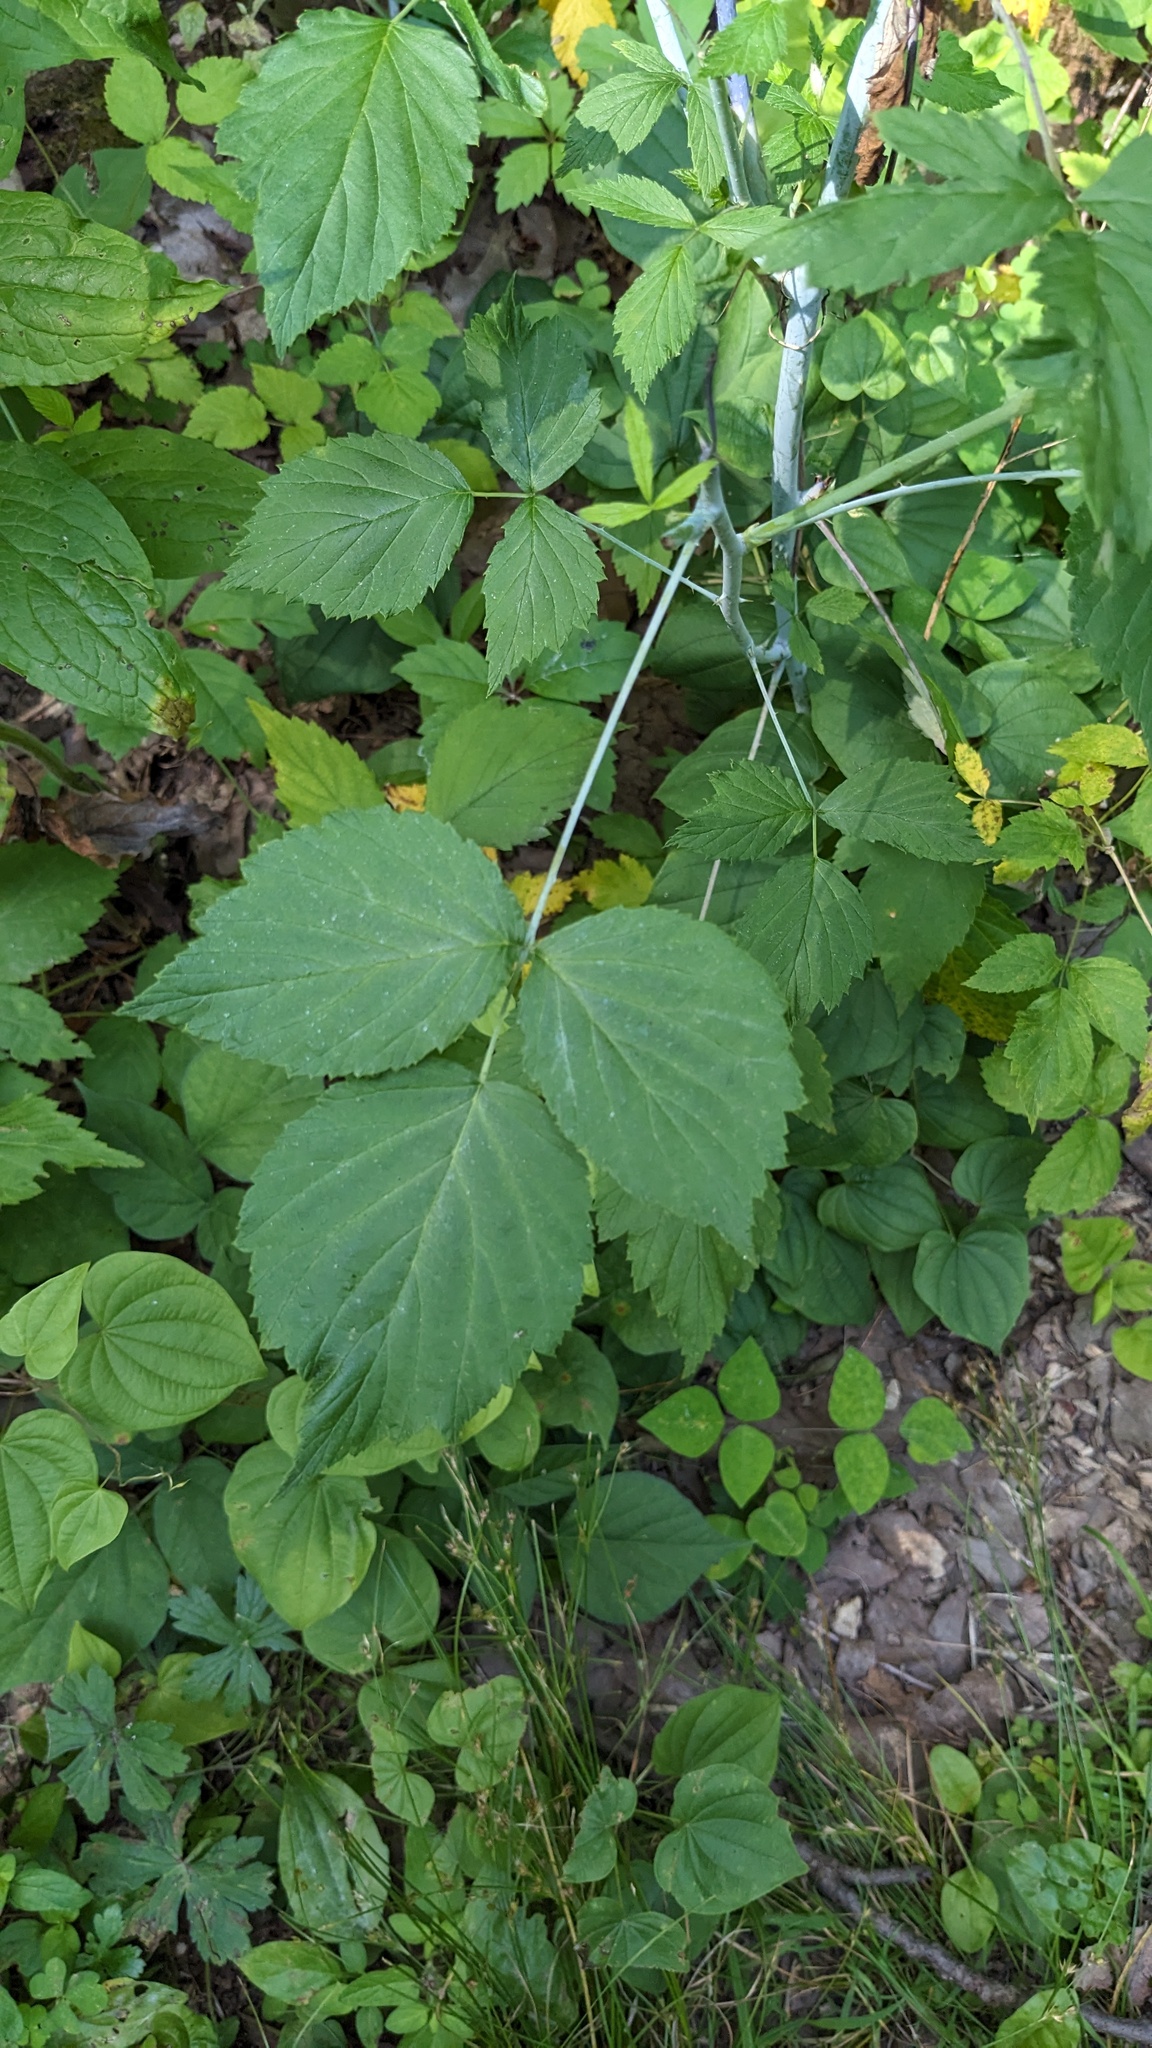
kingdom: Plantae
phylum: Tracheophyta
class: Magnoliopsida
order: Rosales
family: Rosaceae
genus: Rubus
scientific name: Rubus occidentalis
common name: Black raspberry
